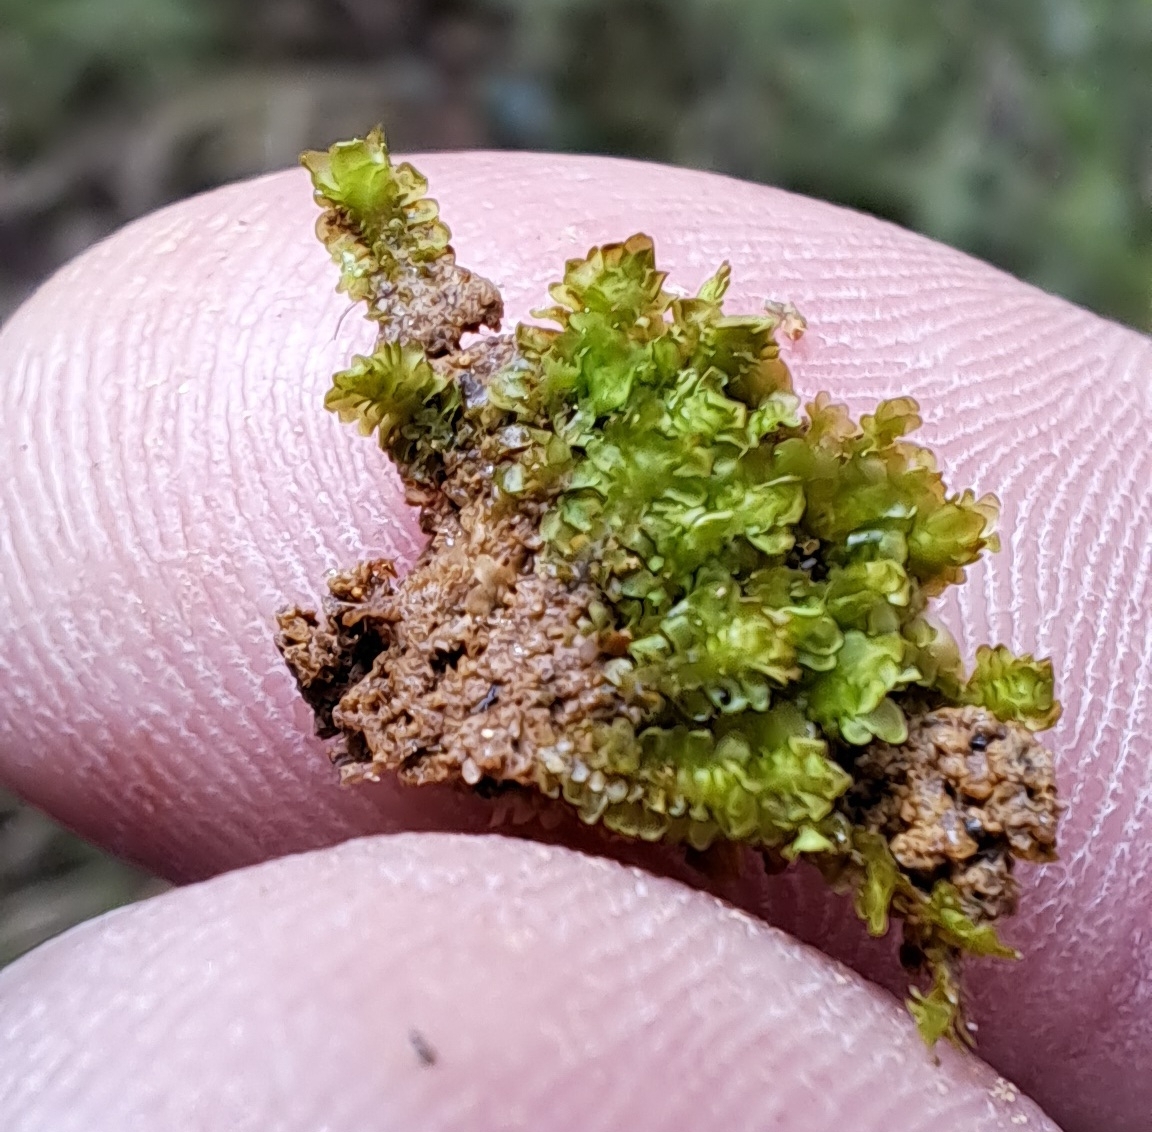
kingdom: Plantae
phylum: Marchantiophyta
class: Jungermanniopsida
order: Jungermanniales
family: Scapaniaceae
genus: Diplophyllum
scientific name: Diplophyllum albicans
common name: White earwort
